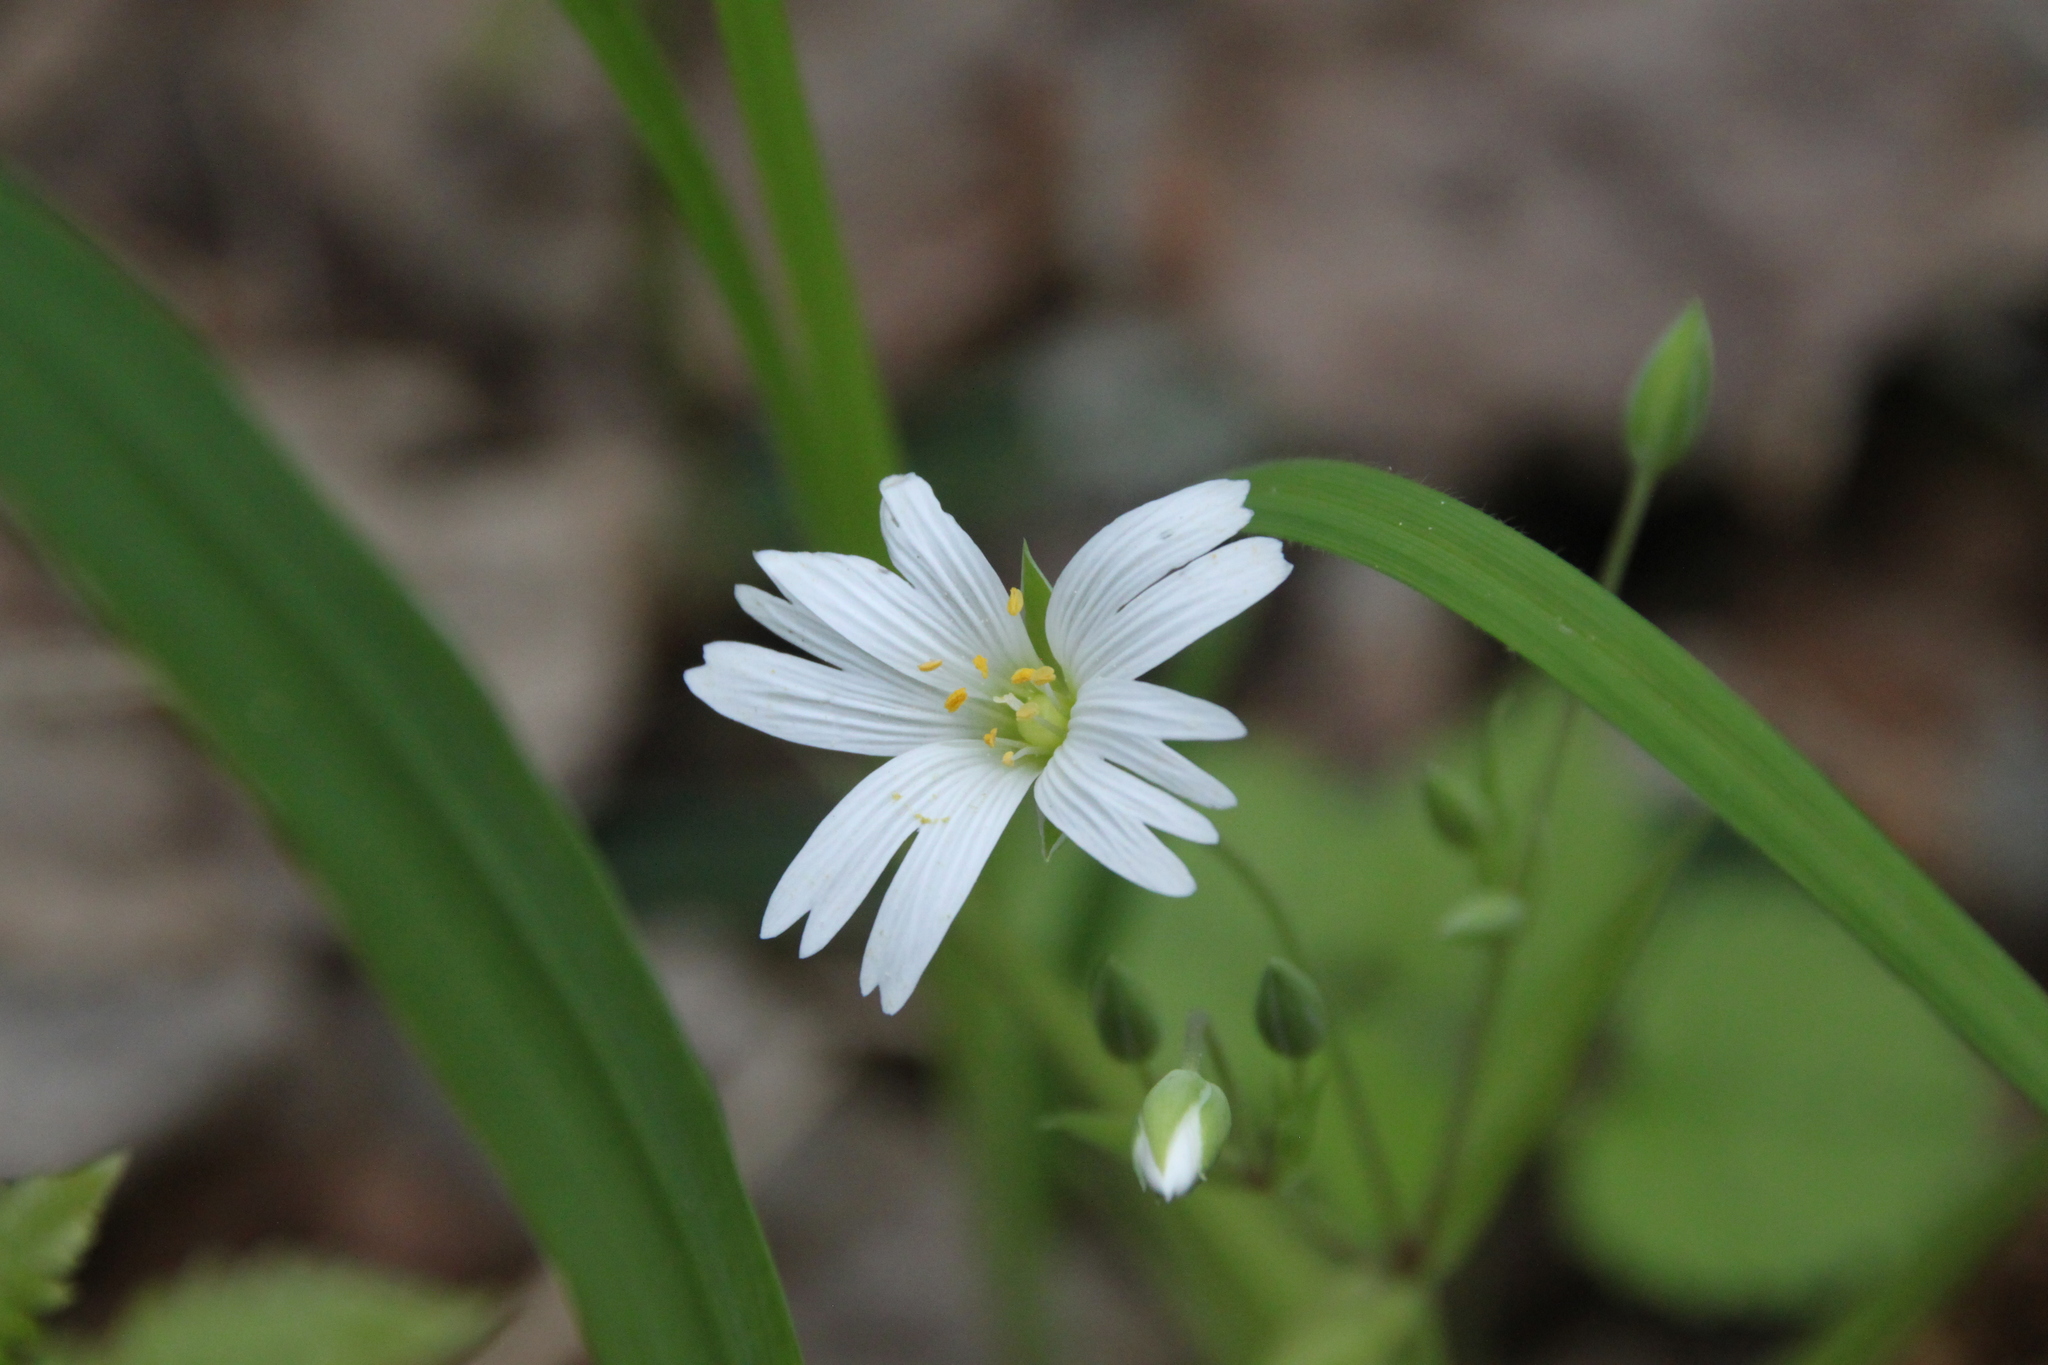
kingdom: Plantae
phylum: Tracheophyta
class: Magnoliopsida
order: Caryophyllales
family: Caryophyllaceae
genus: Rabelera
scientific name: Rabelera holostea
